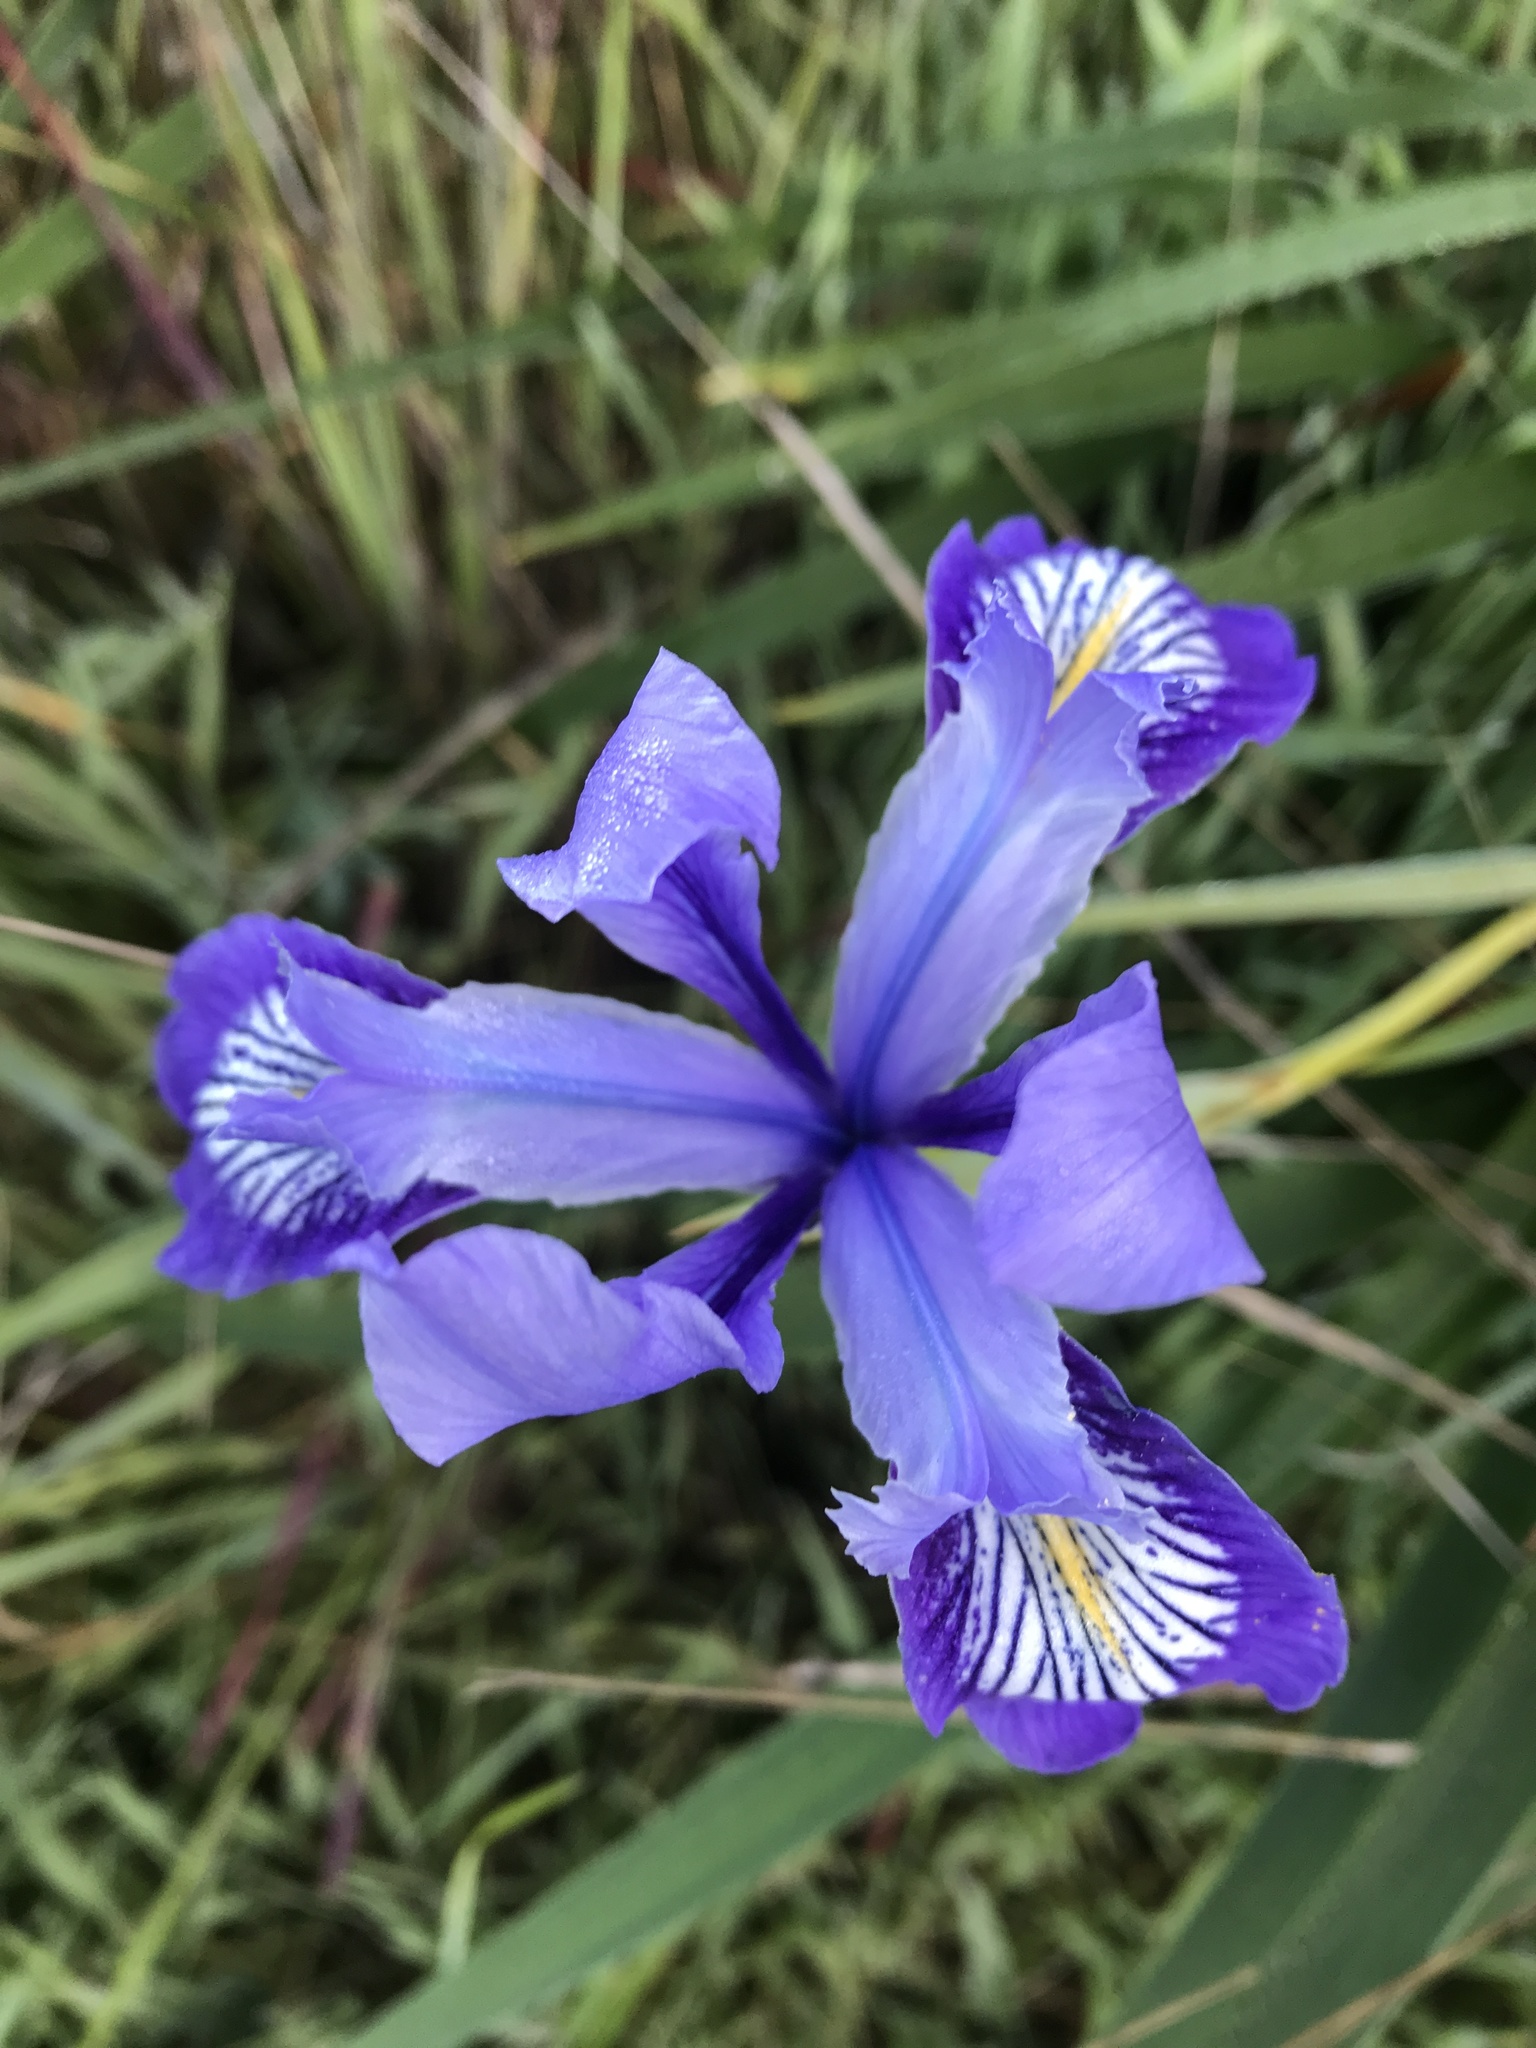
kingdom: Plantae
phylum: Tracheophyta
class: Liliopsida
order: Asparagales
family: Iridaceae
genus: Iris
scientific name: Iris douglasiana
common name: Marin iris
